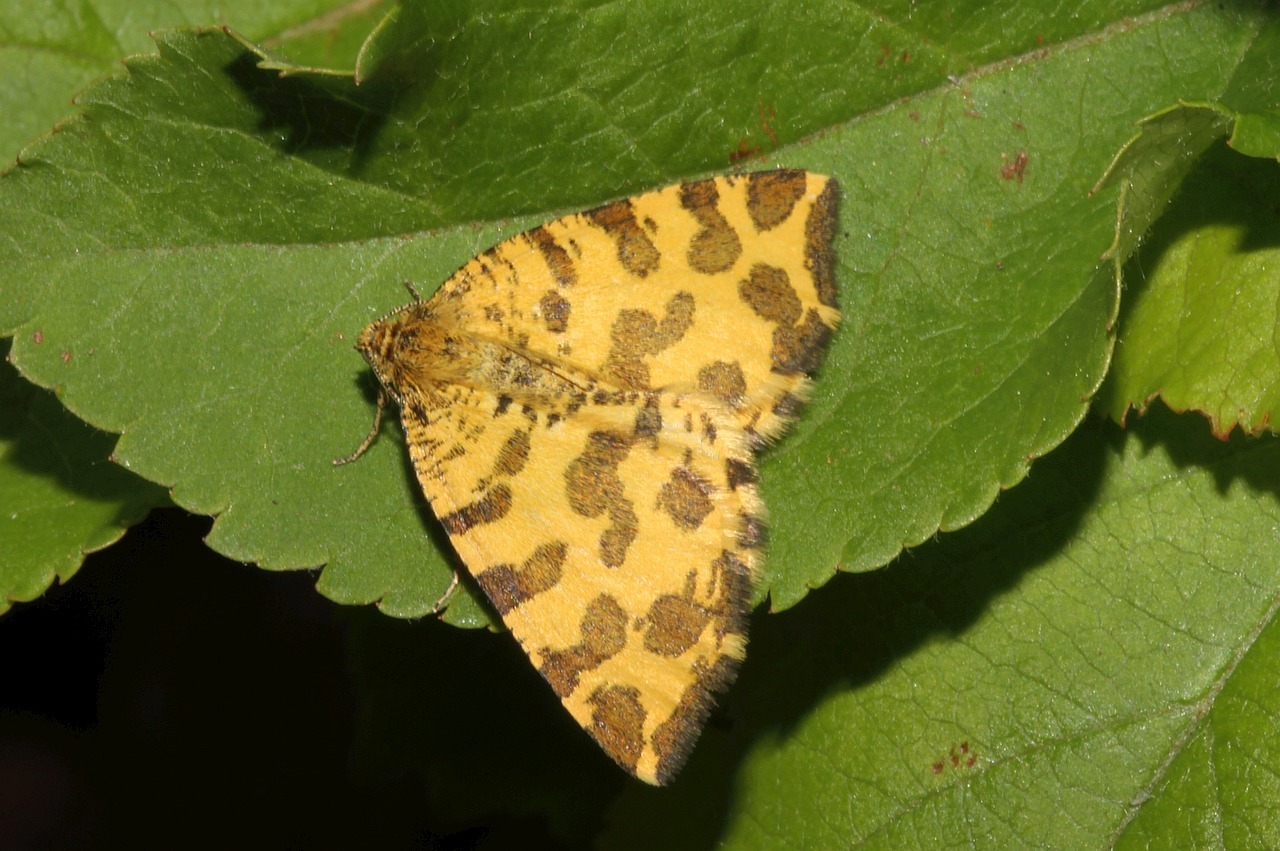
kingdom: Animalia
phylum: Arthropoda
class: Insecta
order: Lepidoptera
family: Geometridae
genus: Pseudopanthera
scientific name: Pseudopanthera macularia
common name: Speckled yellow
